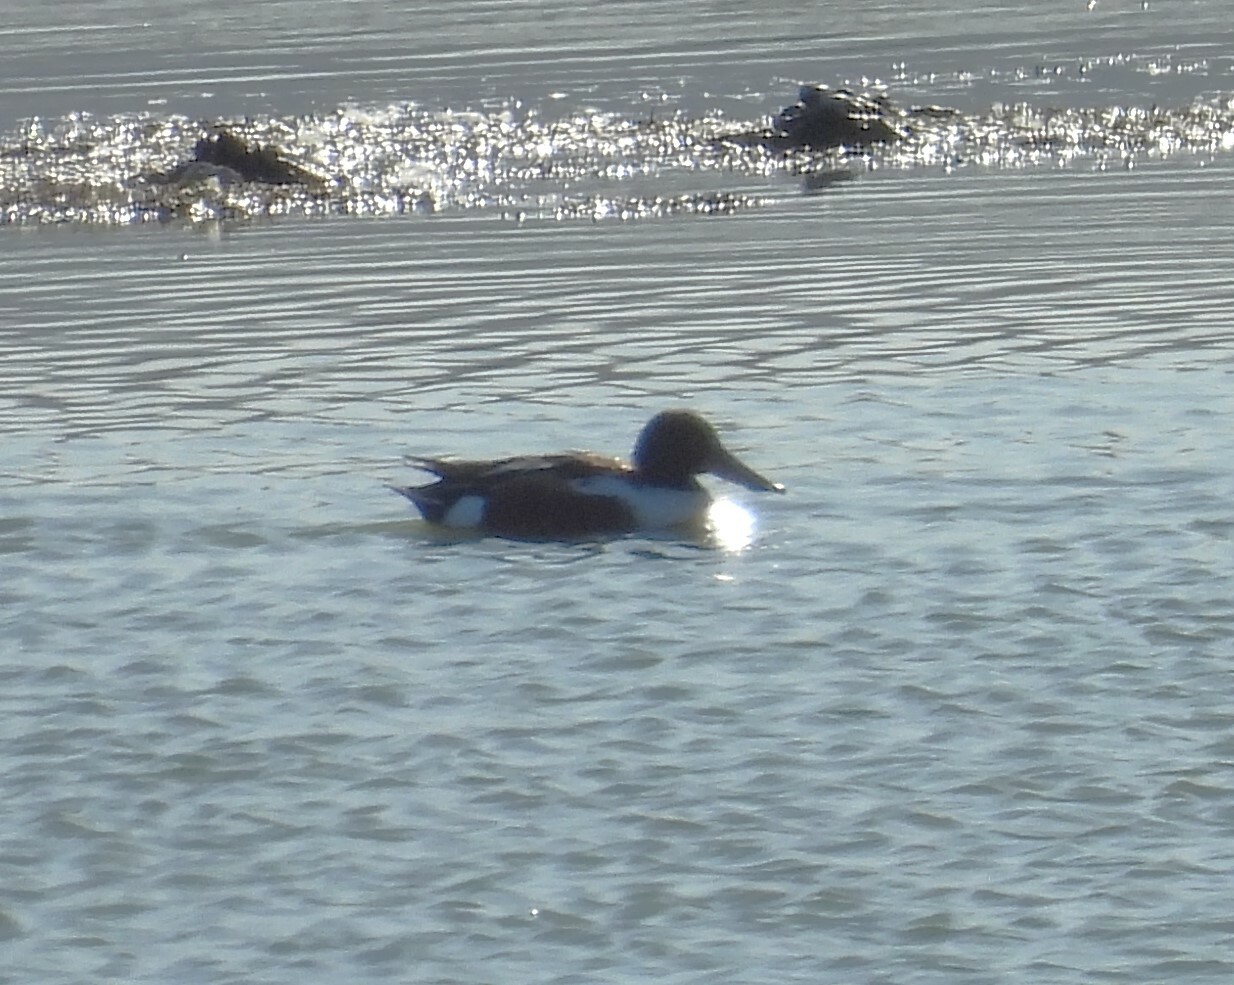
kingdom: Animalia
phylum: Chordata
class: Aves
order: Anseriformes
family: Anatidae
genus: Spatula
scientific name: Spatula clypeata
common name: Northern shoveler
